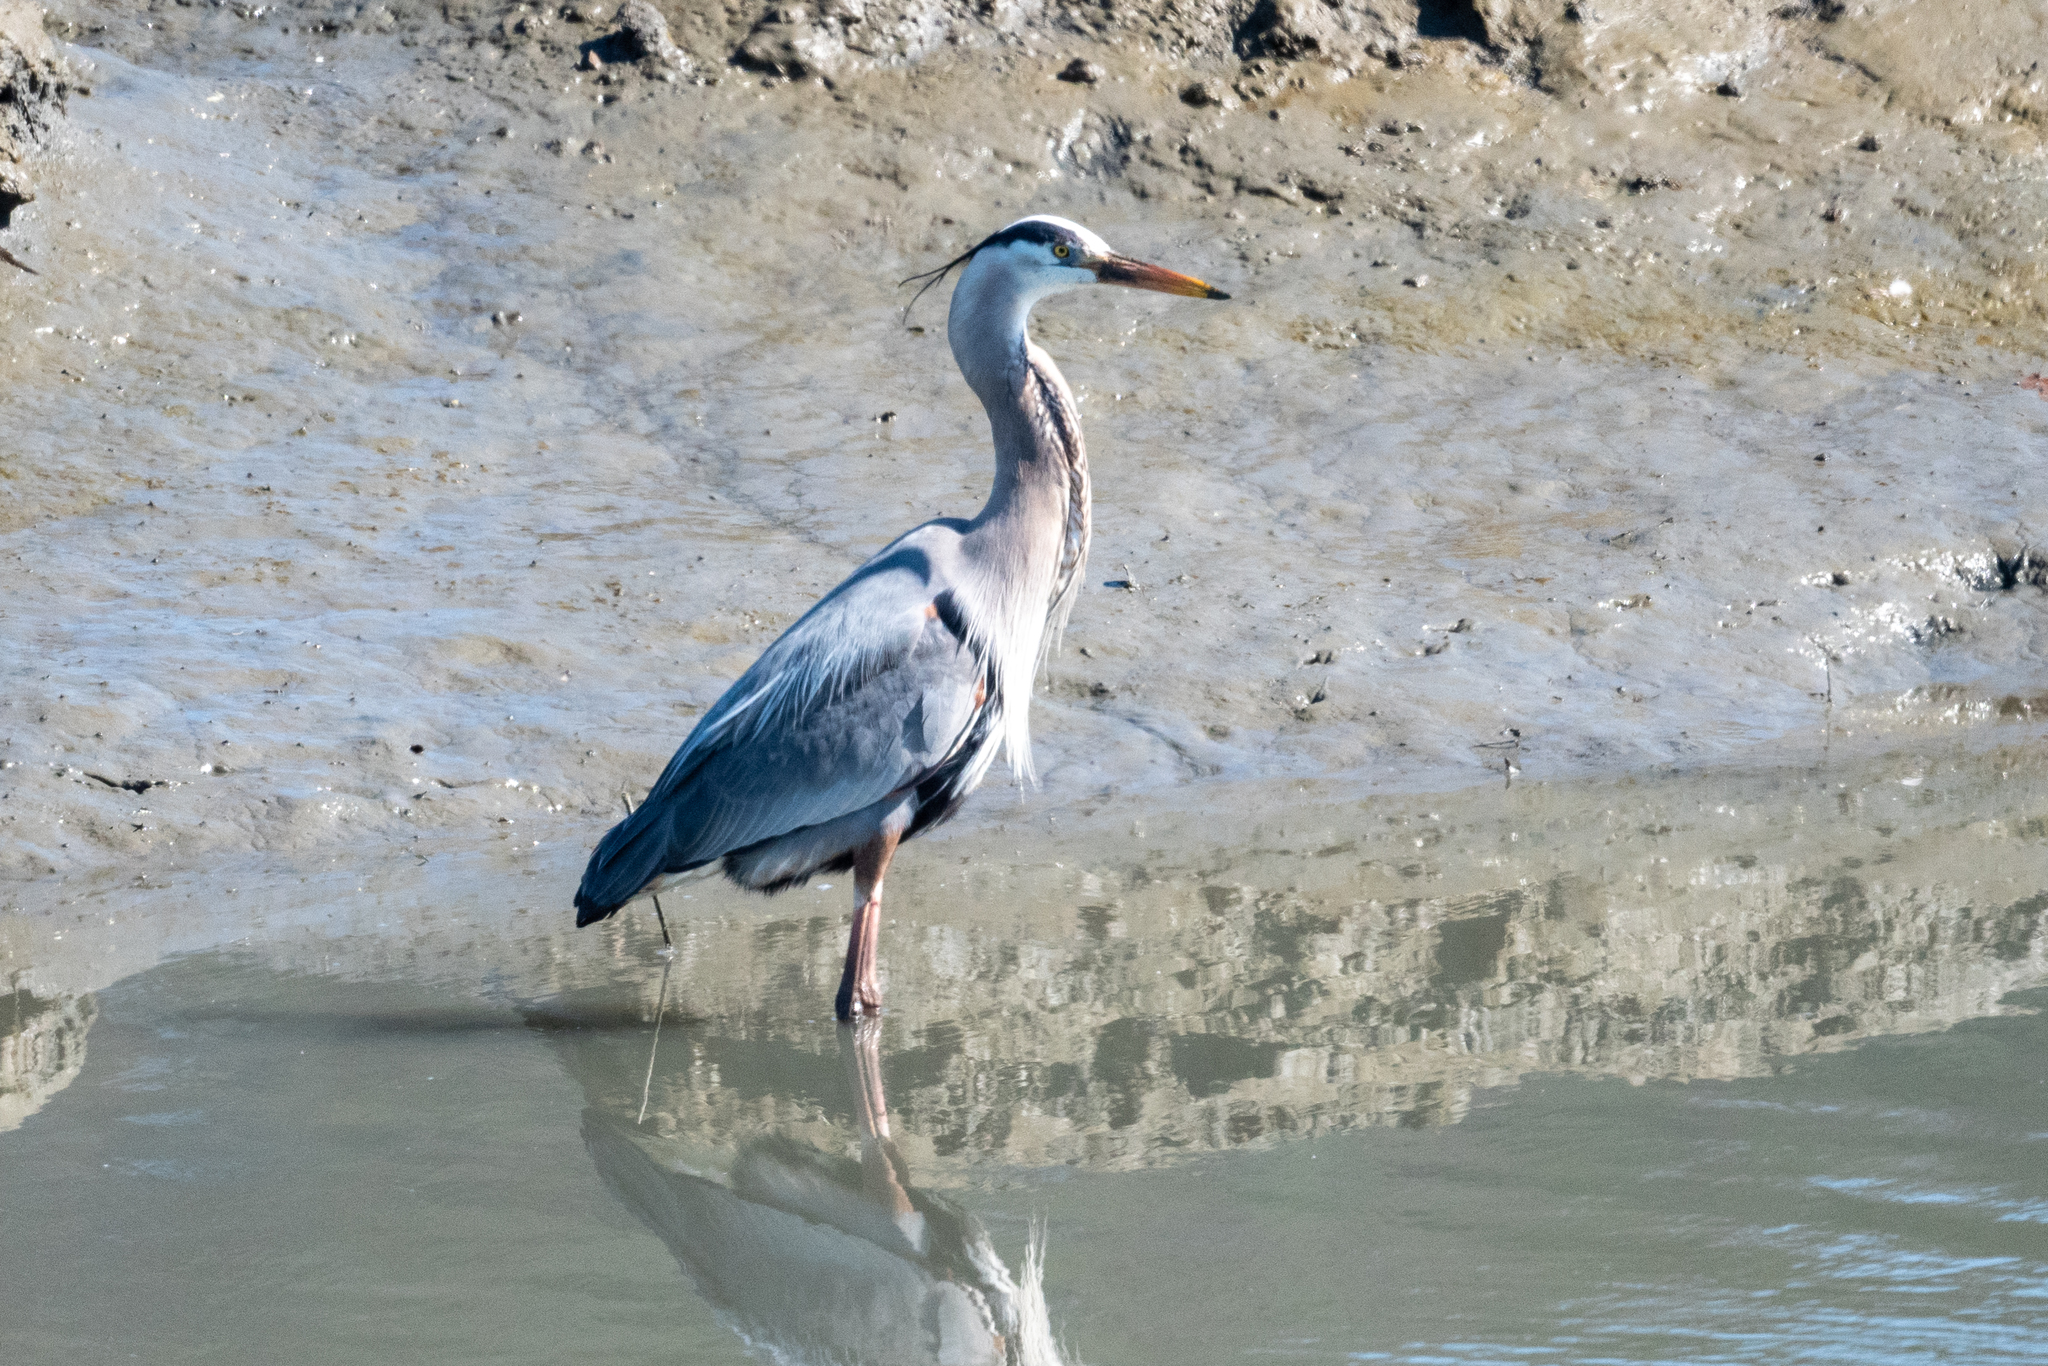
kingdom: Animalia
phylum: Chordata
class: Aves
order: Pelecaniformes
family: Ardeidae
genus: Ardea
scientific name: Ardea herodias
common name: Great blue heron
